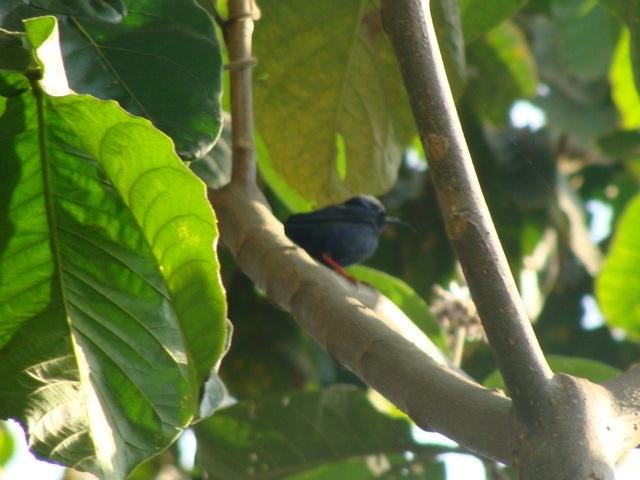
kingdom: Animalia
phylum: Chordata
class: Aves
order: Passeriformes
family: Thraupidae
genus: Cyanerpes
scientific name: Cyanerpes cyaneus
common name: Red-legged honeycreeper
